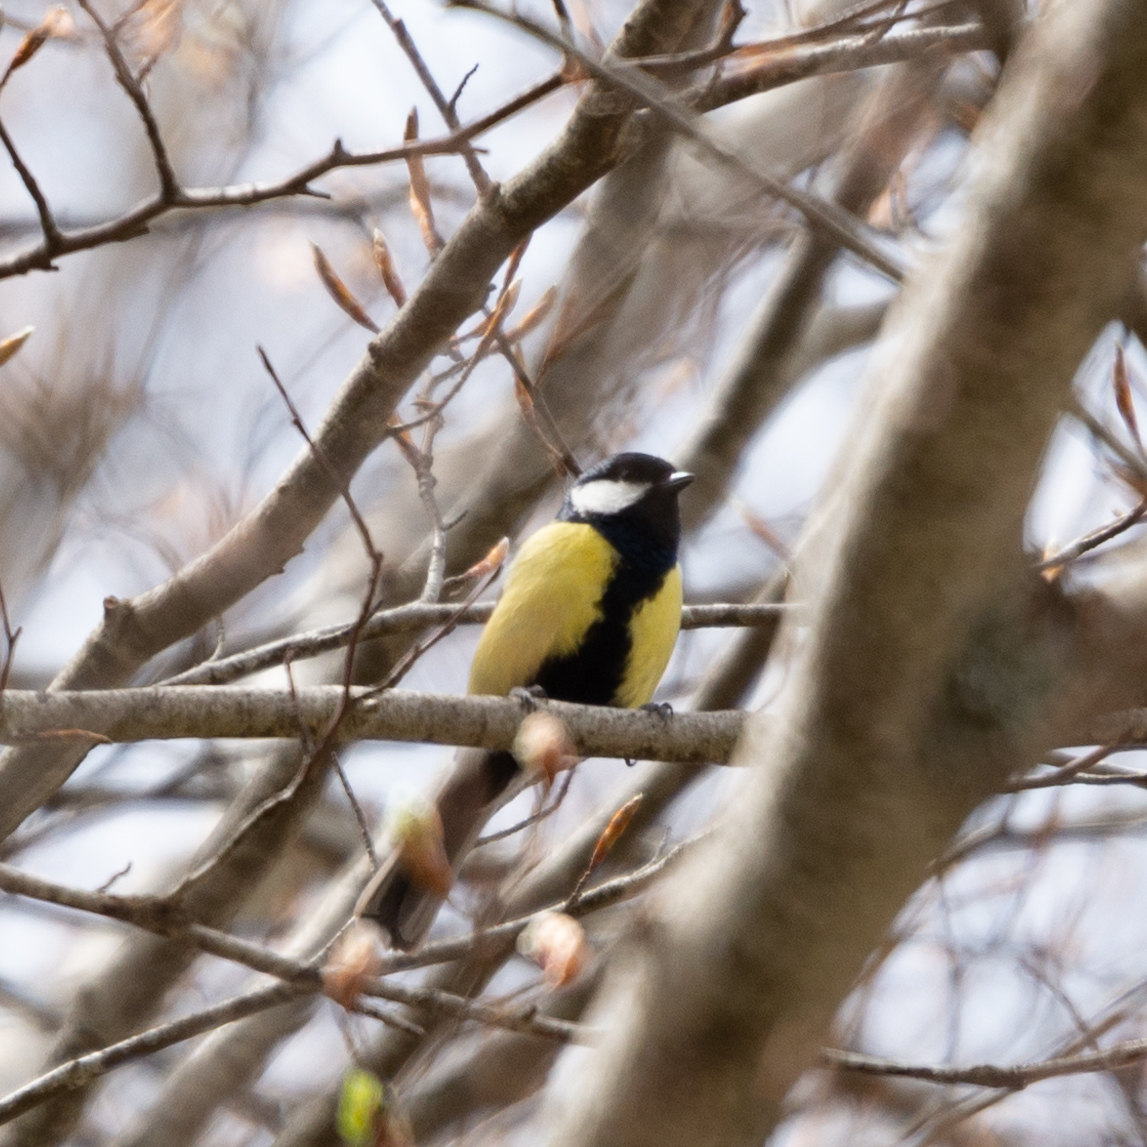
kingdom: Animalia
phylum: Chordata
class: Aves
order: Passeriformes
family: Paridae
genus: Parus
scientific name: Parus major
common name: Great tit
